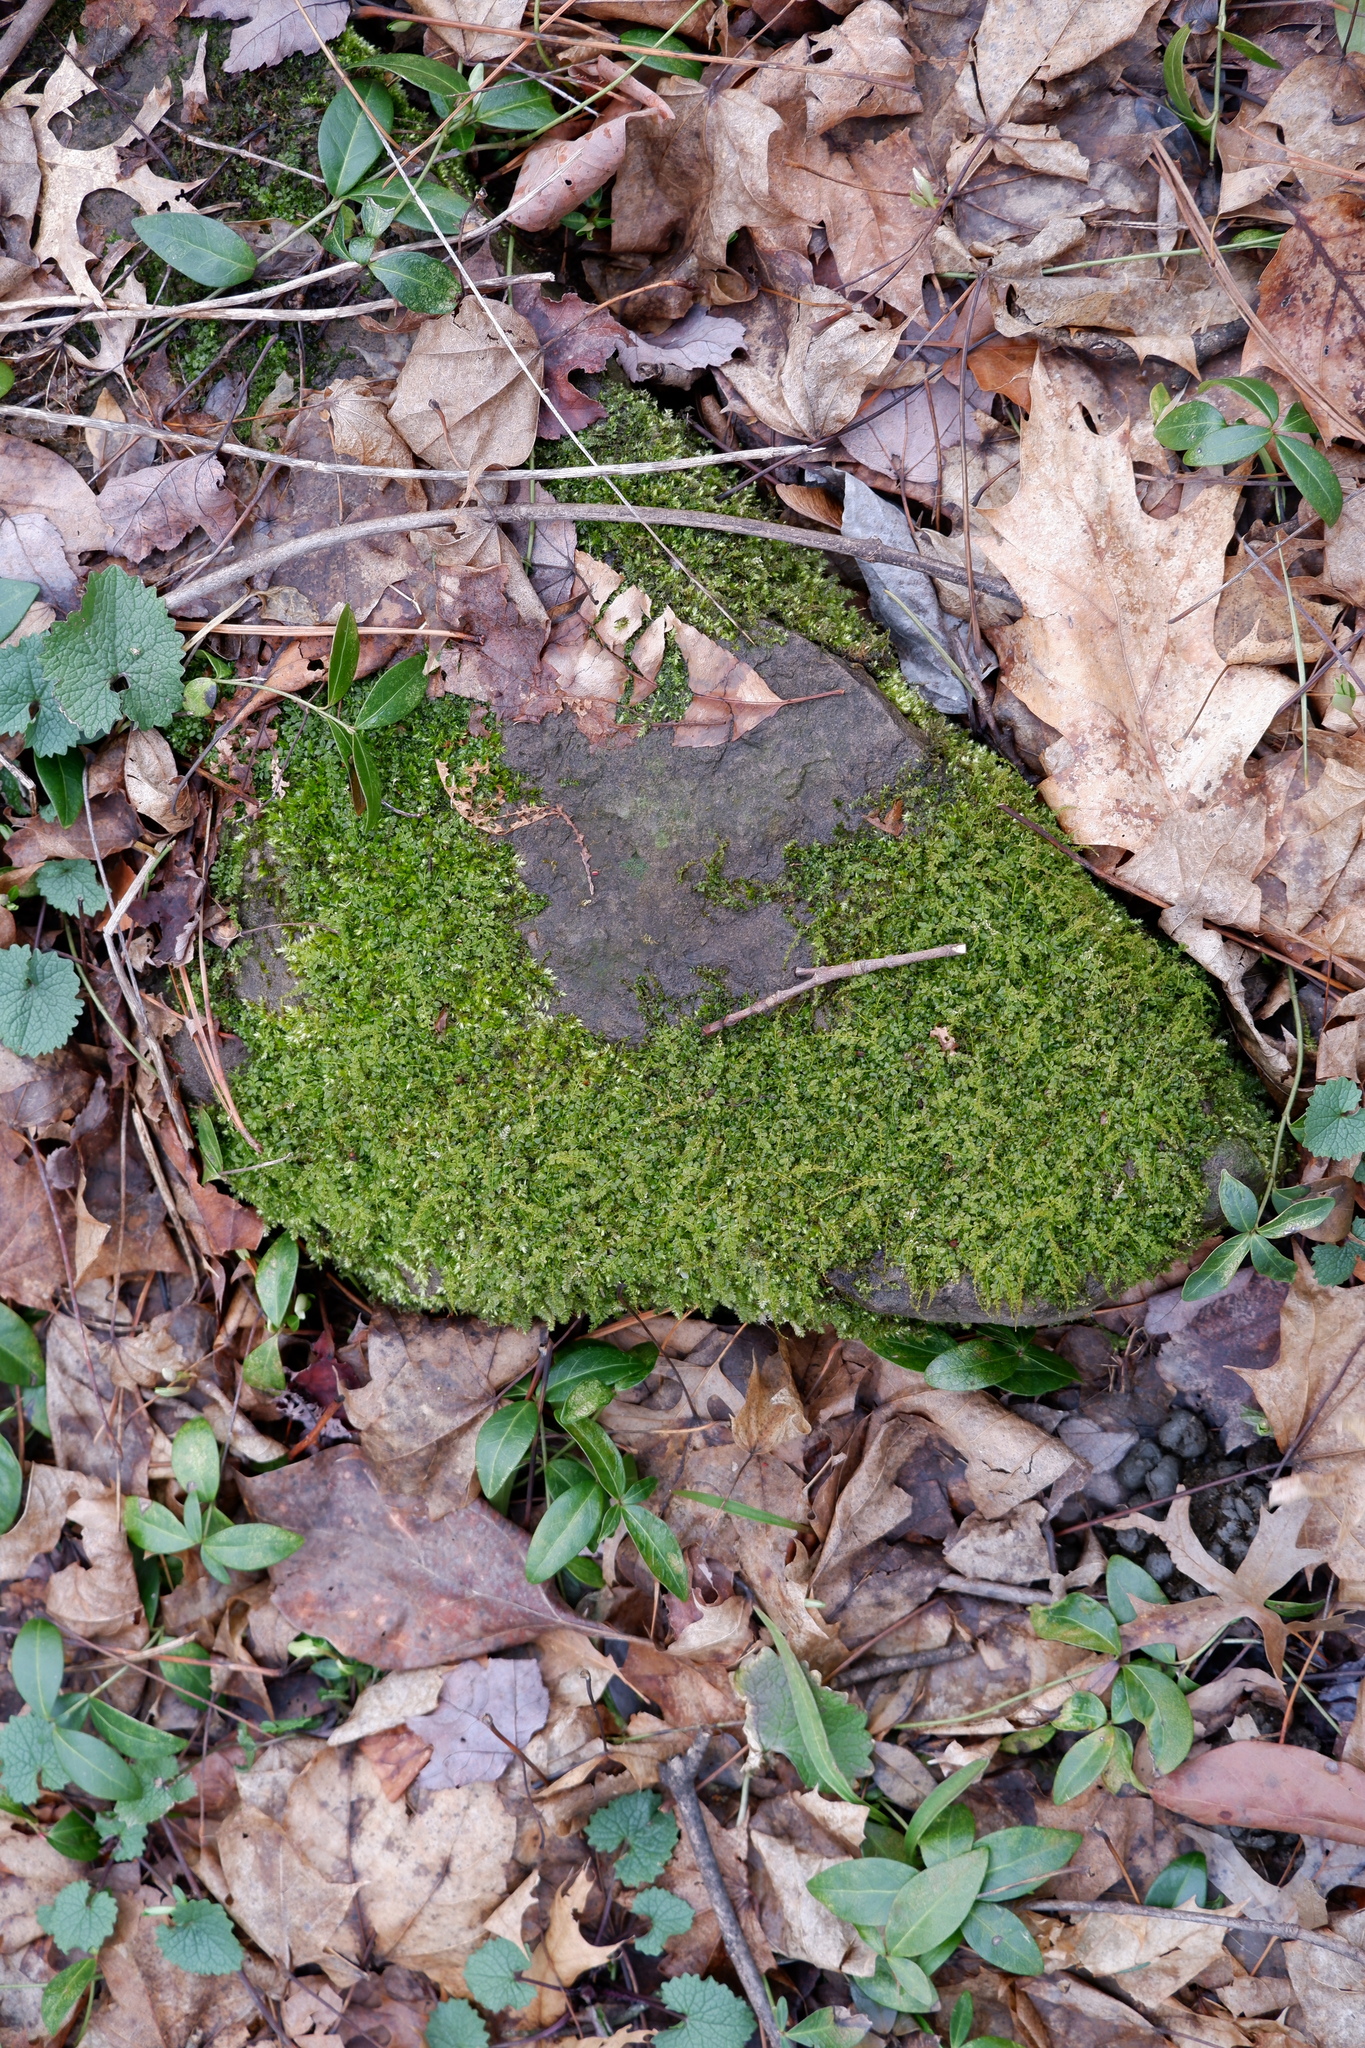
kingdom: Plantae
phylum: Bryophyta
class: Bryopsida
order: Bryales
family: Mniaceae
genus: Plagiomnium
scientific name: Plagiomnium cuspidatum
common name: Woodsy leafy moss
